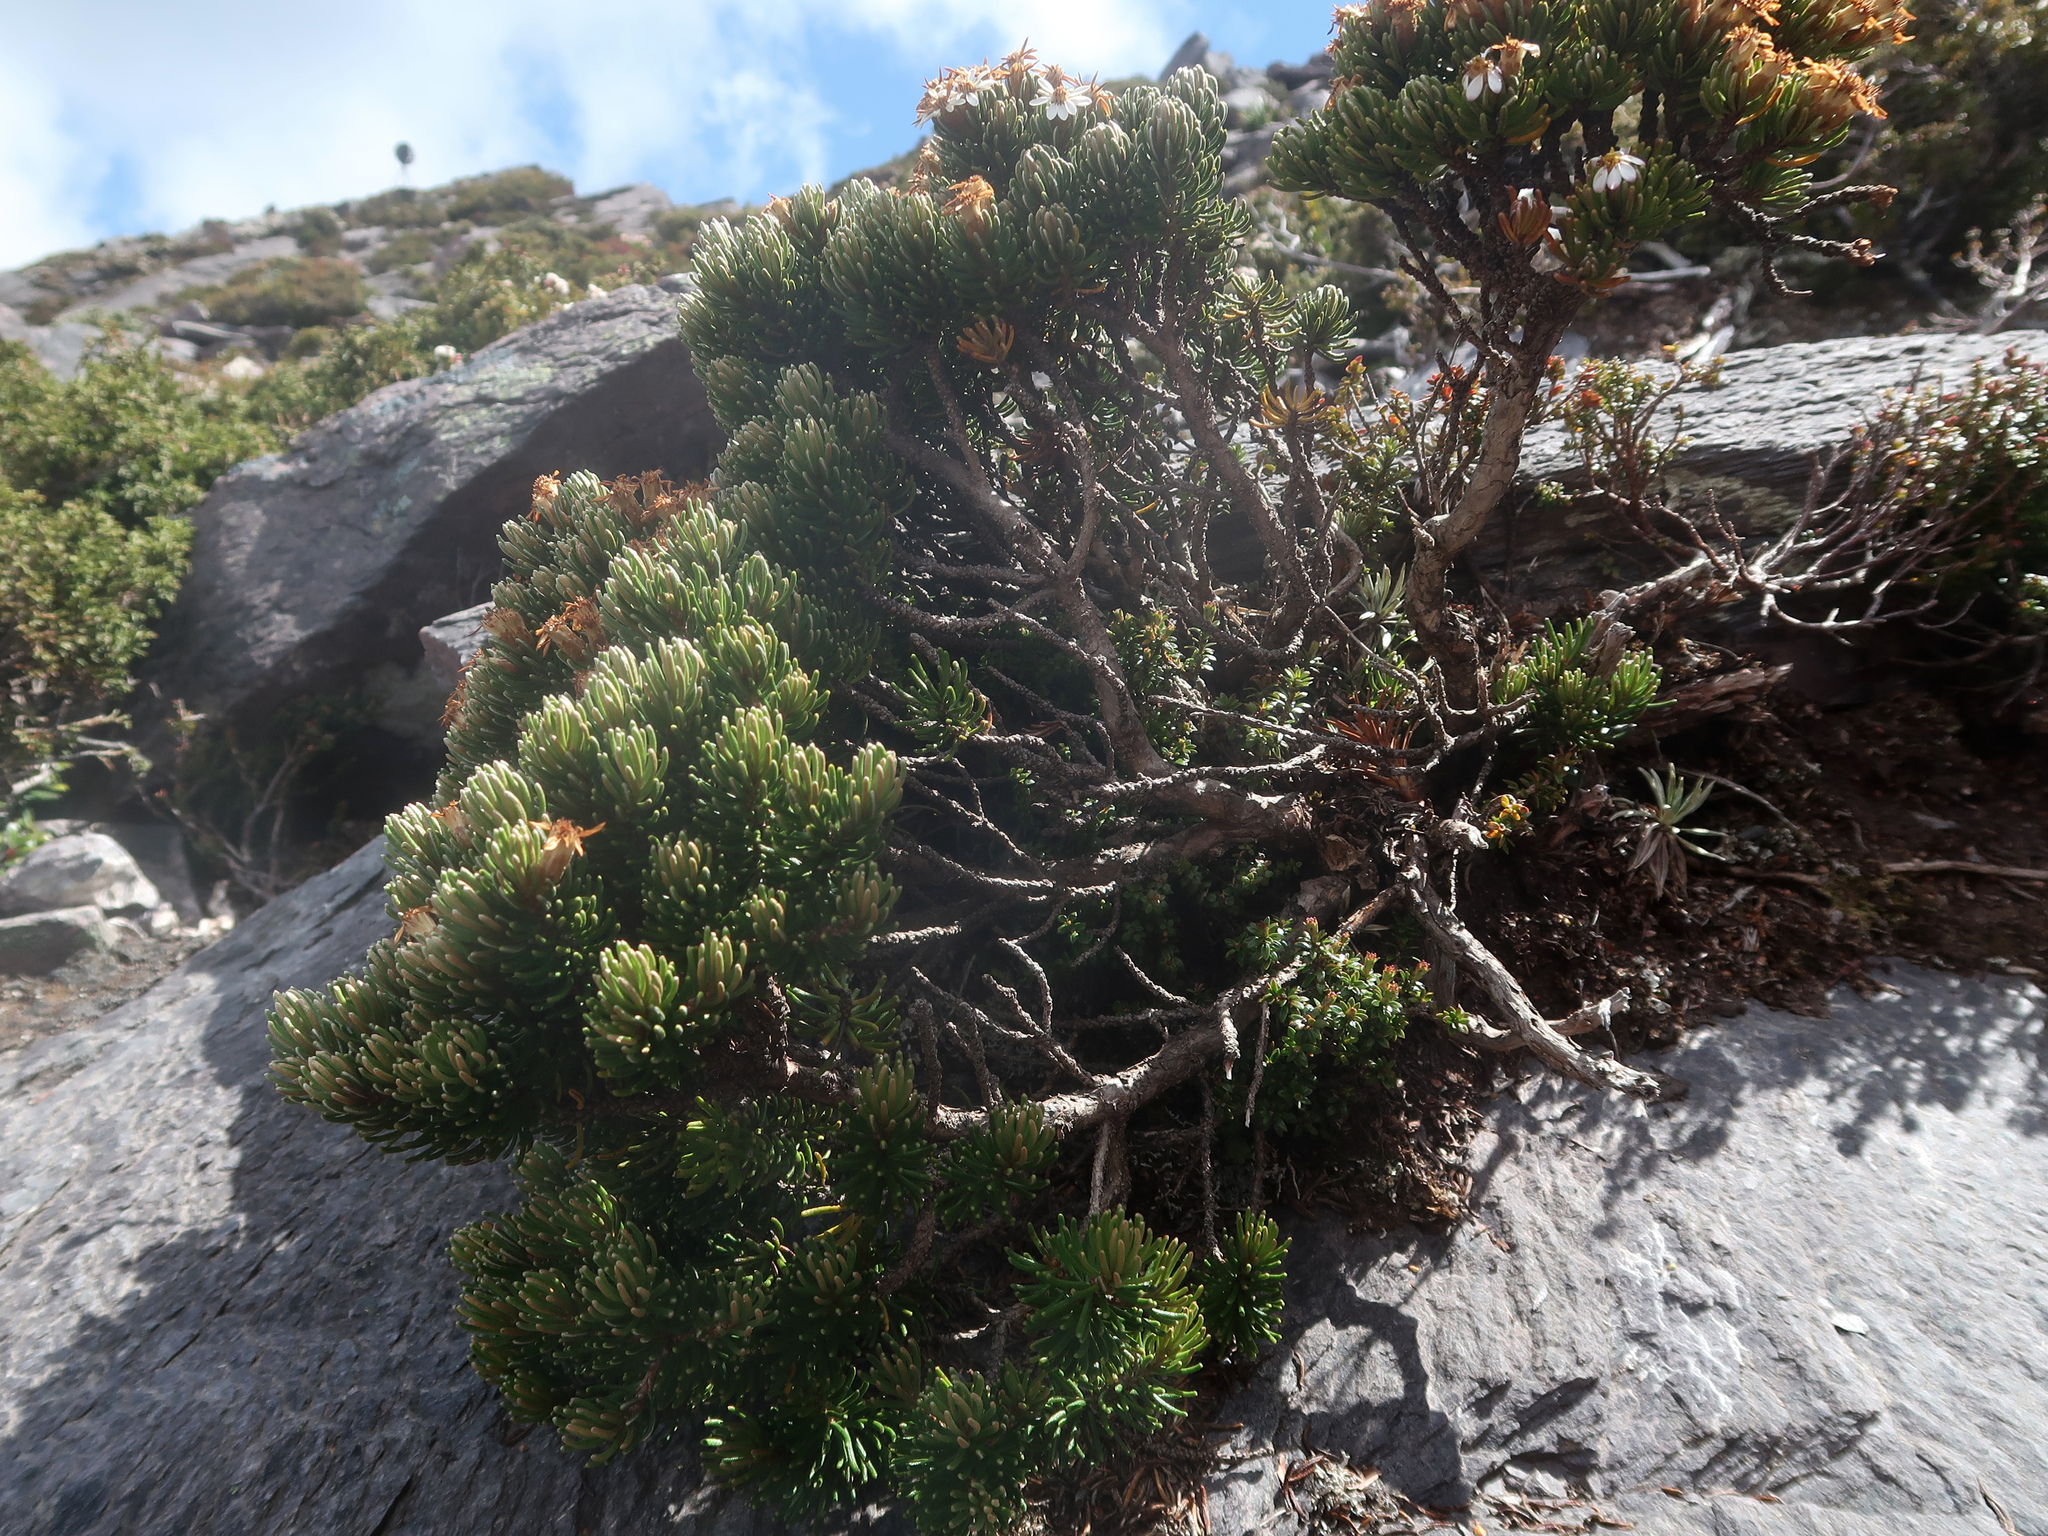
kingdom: Plantae
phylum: Tracheophyta
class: Magnoliopsida
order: Asterales
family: Asteraceae
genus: Olearia
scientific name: Olearia ledifolia
